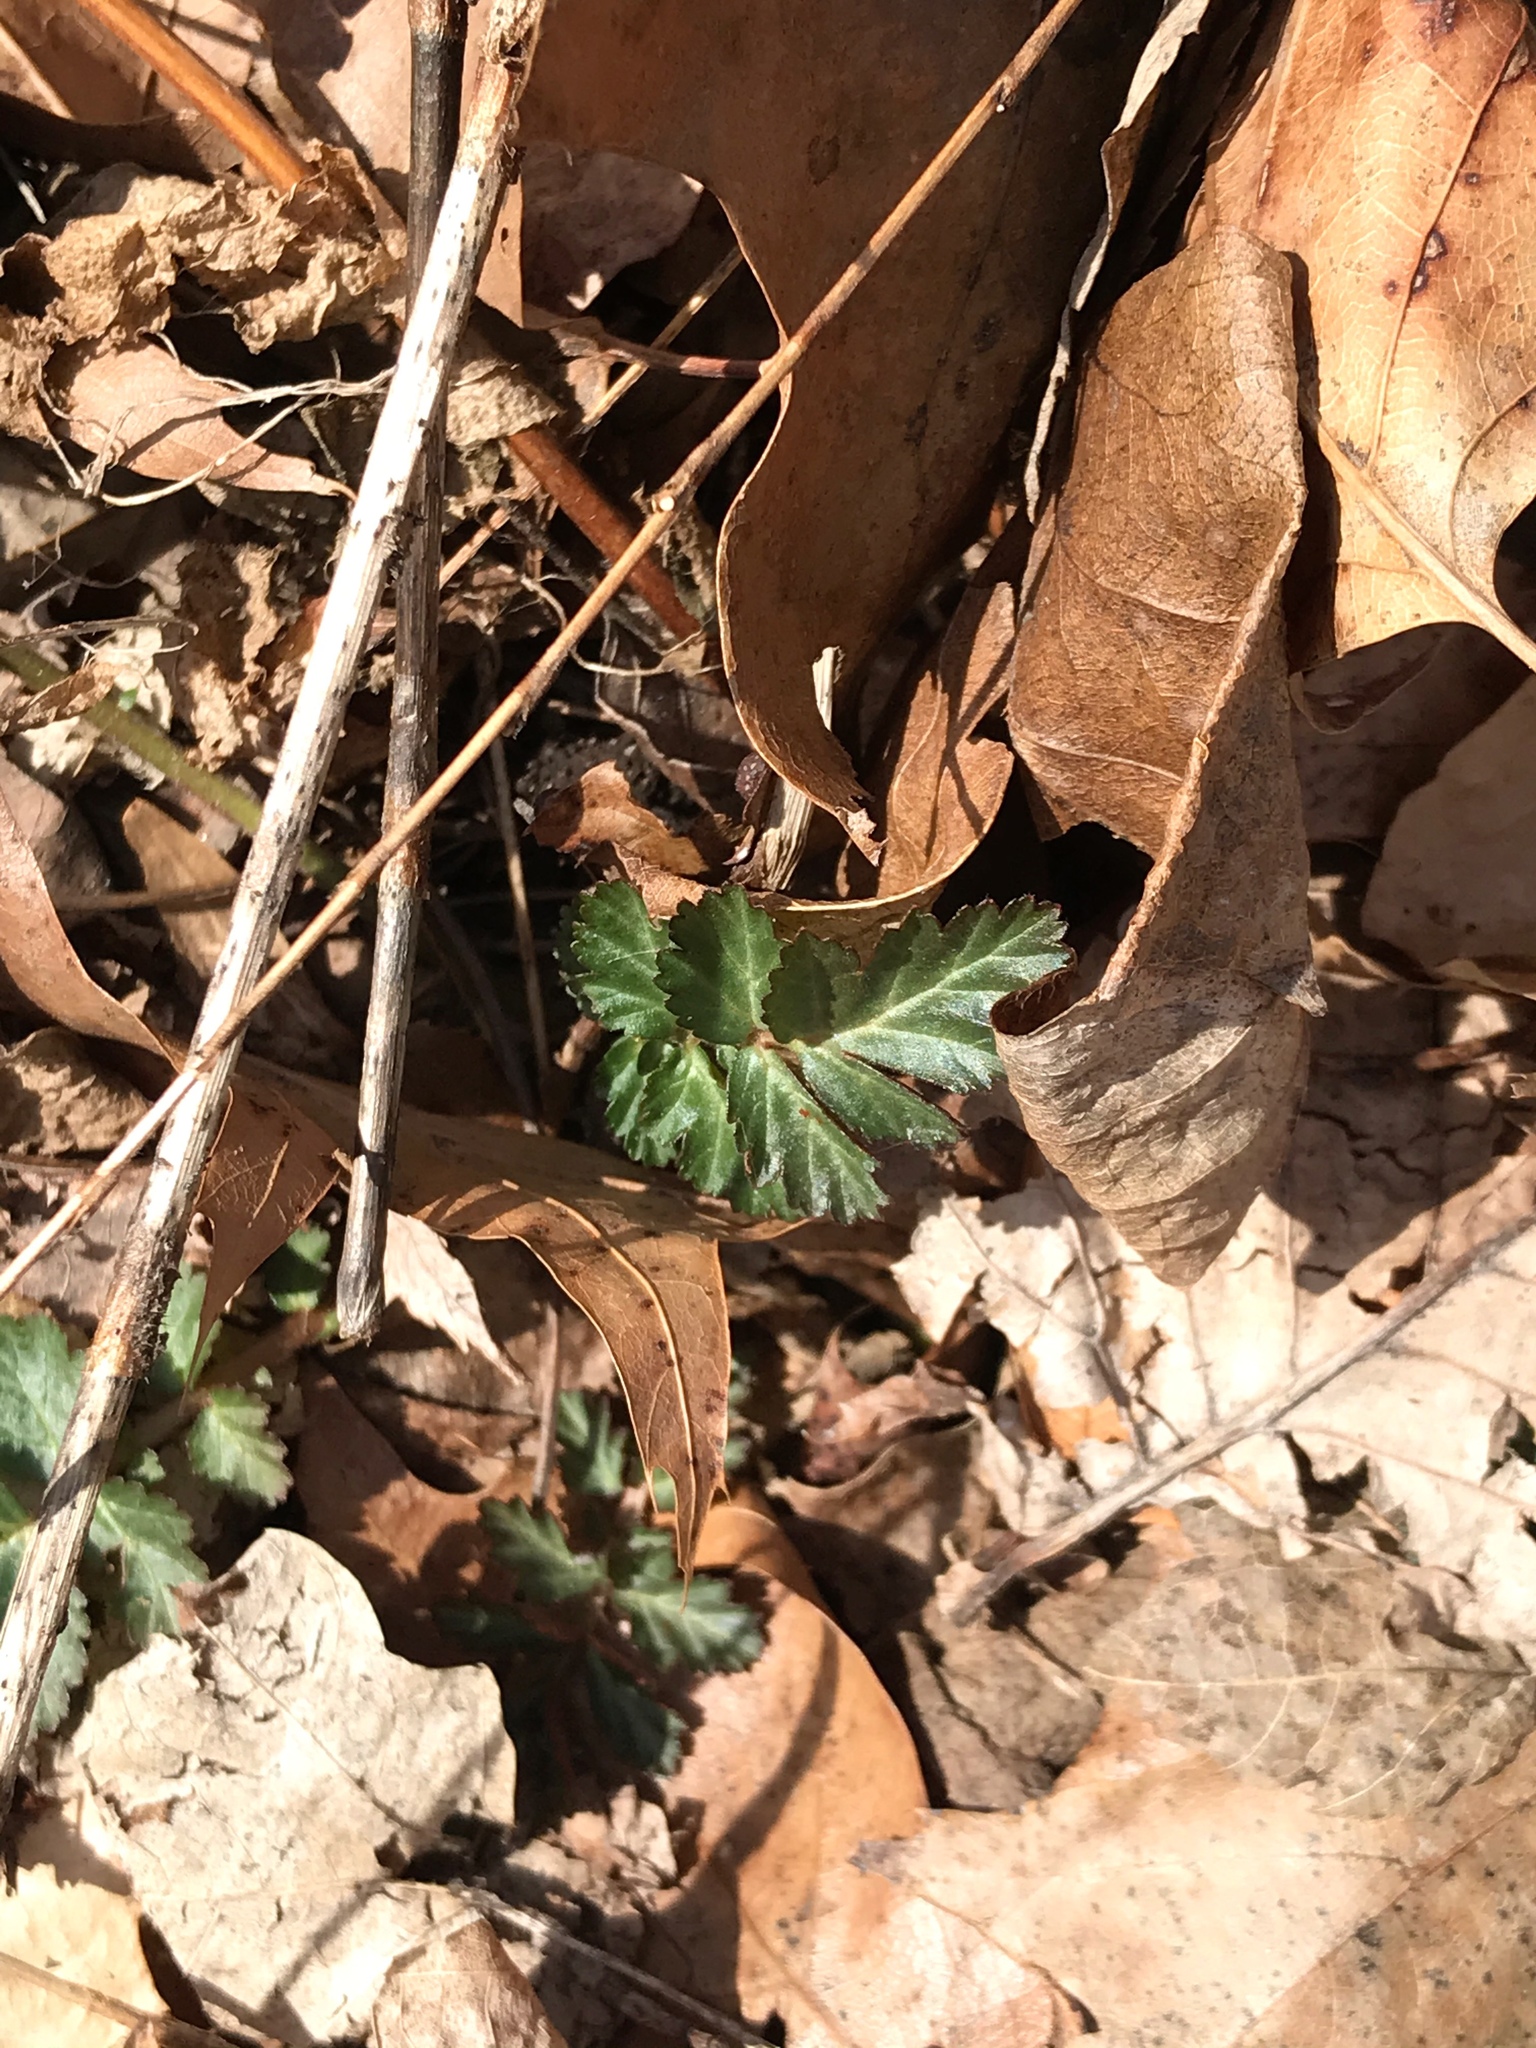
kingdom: Plantae
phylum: Tracheophyta
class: Magnoliopsida
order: Rosales
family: Rosaceae
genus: Geum
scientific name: Geum canadense
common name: White avens
